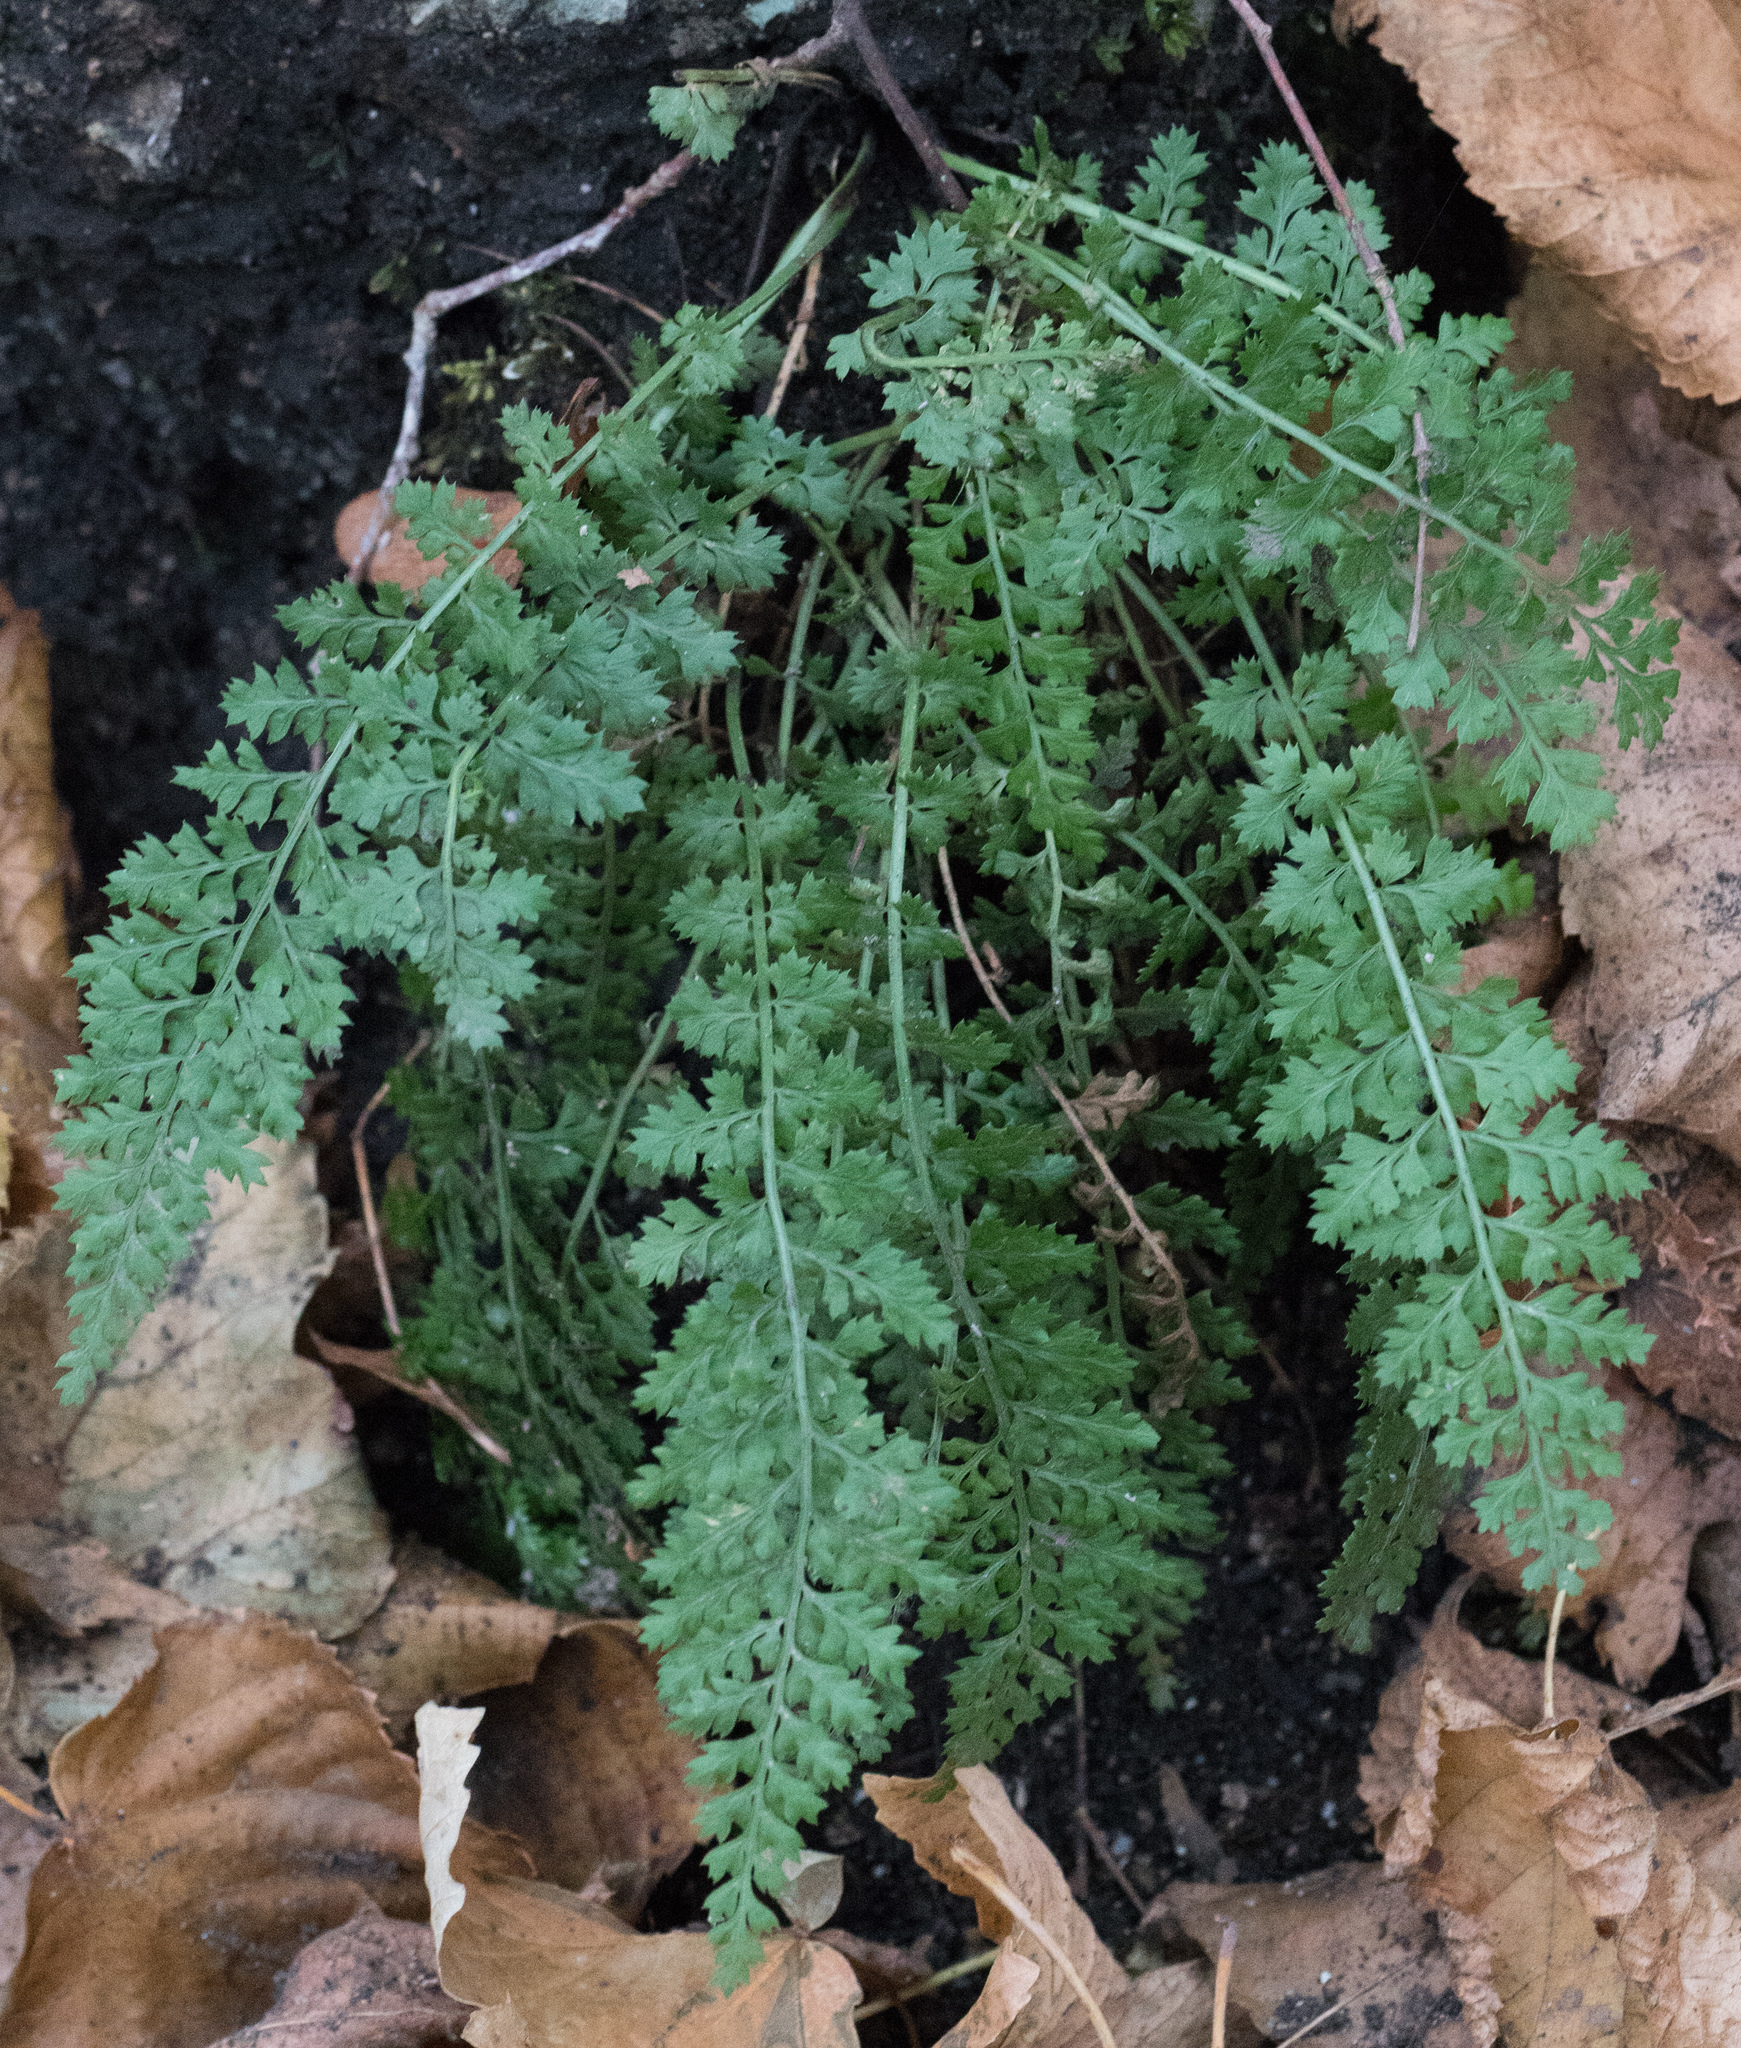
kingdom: Plantae
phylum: Tracheophyta
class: Polypodiopsida
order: Polypodiales
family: Aspleniaceae
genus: Asplenium
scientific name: Asplenium fontanum
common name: Fountain spleenwort
